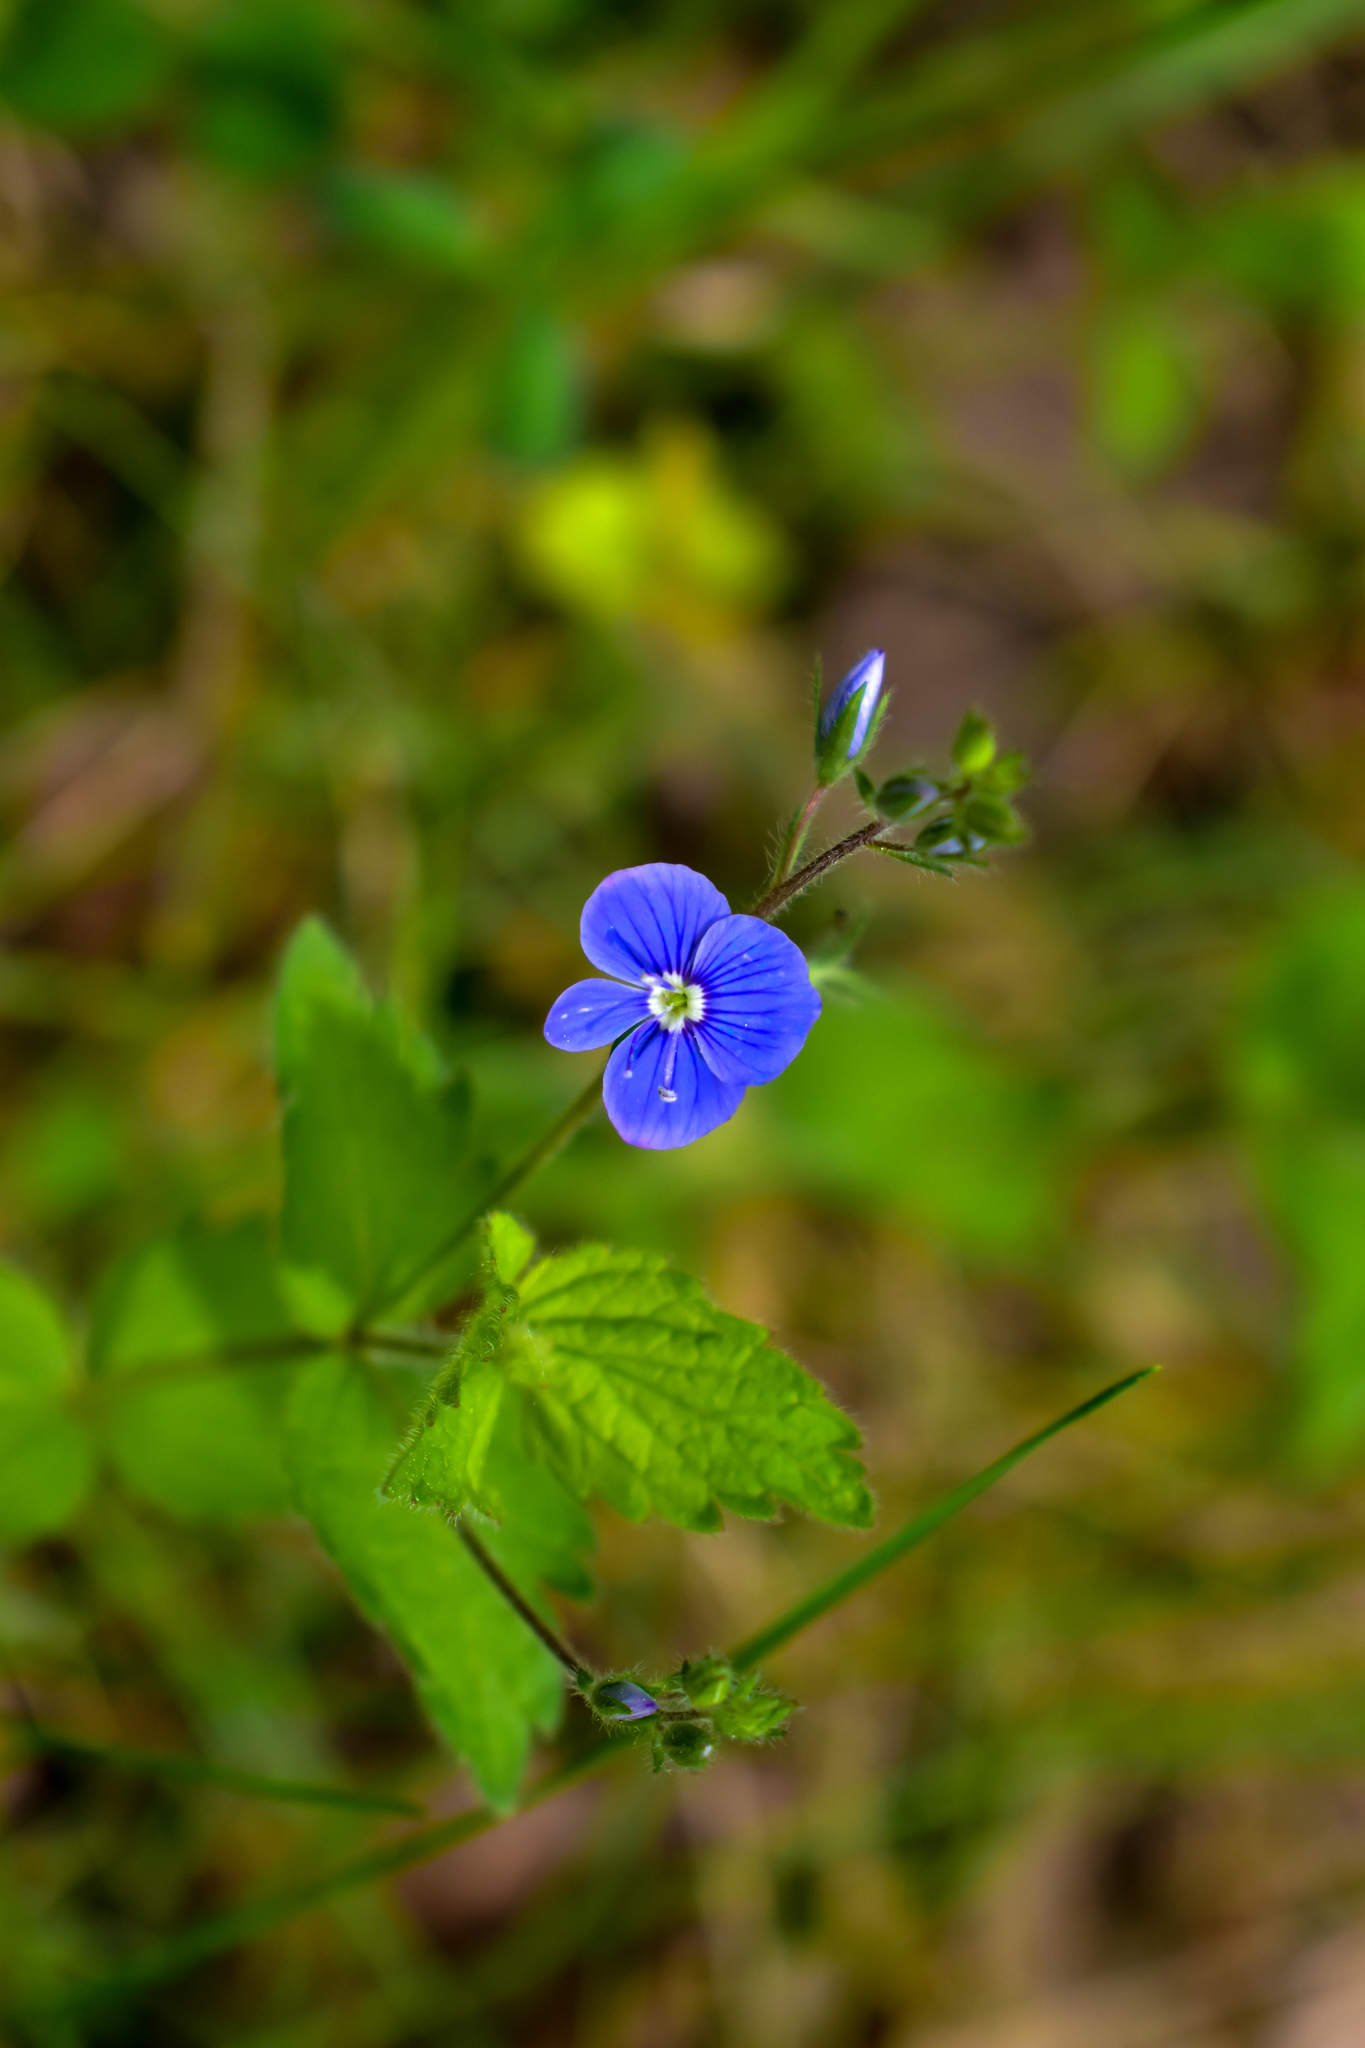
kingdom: Plantae
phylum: Tracheophyta
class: Magnoliopsida
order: Lamiales
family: Plantaginaceae
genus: Veronica
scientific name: Veronica chamaedrys
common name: Germander speedwell
